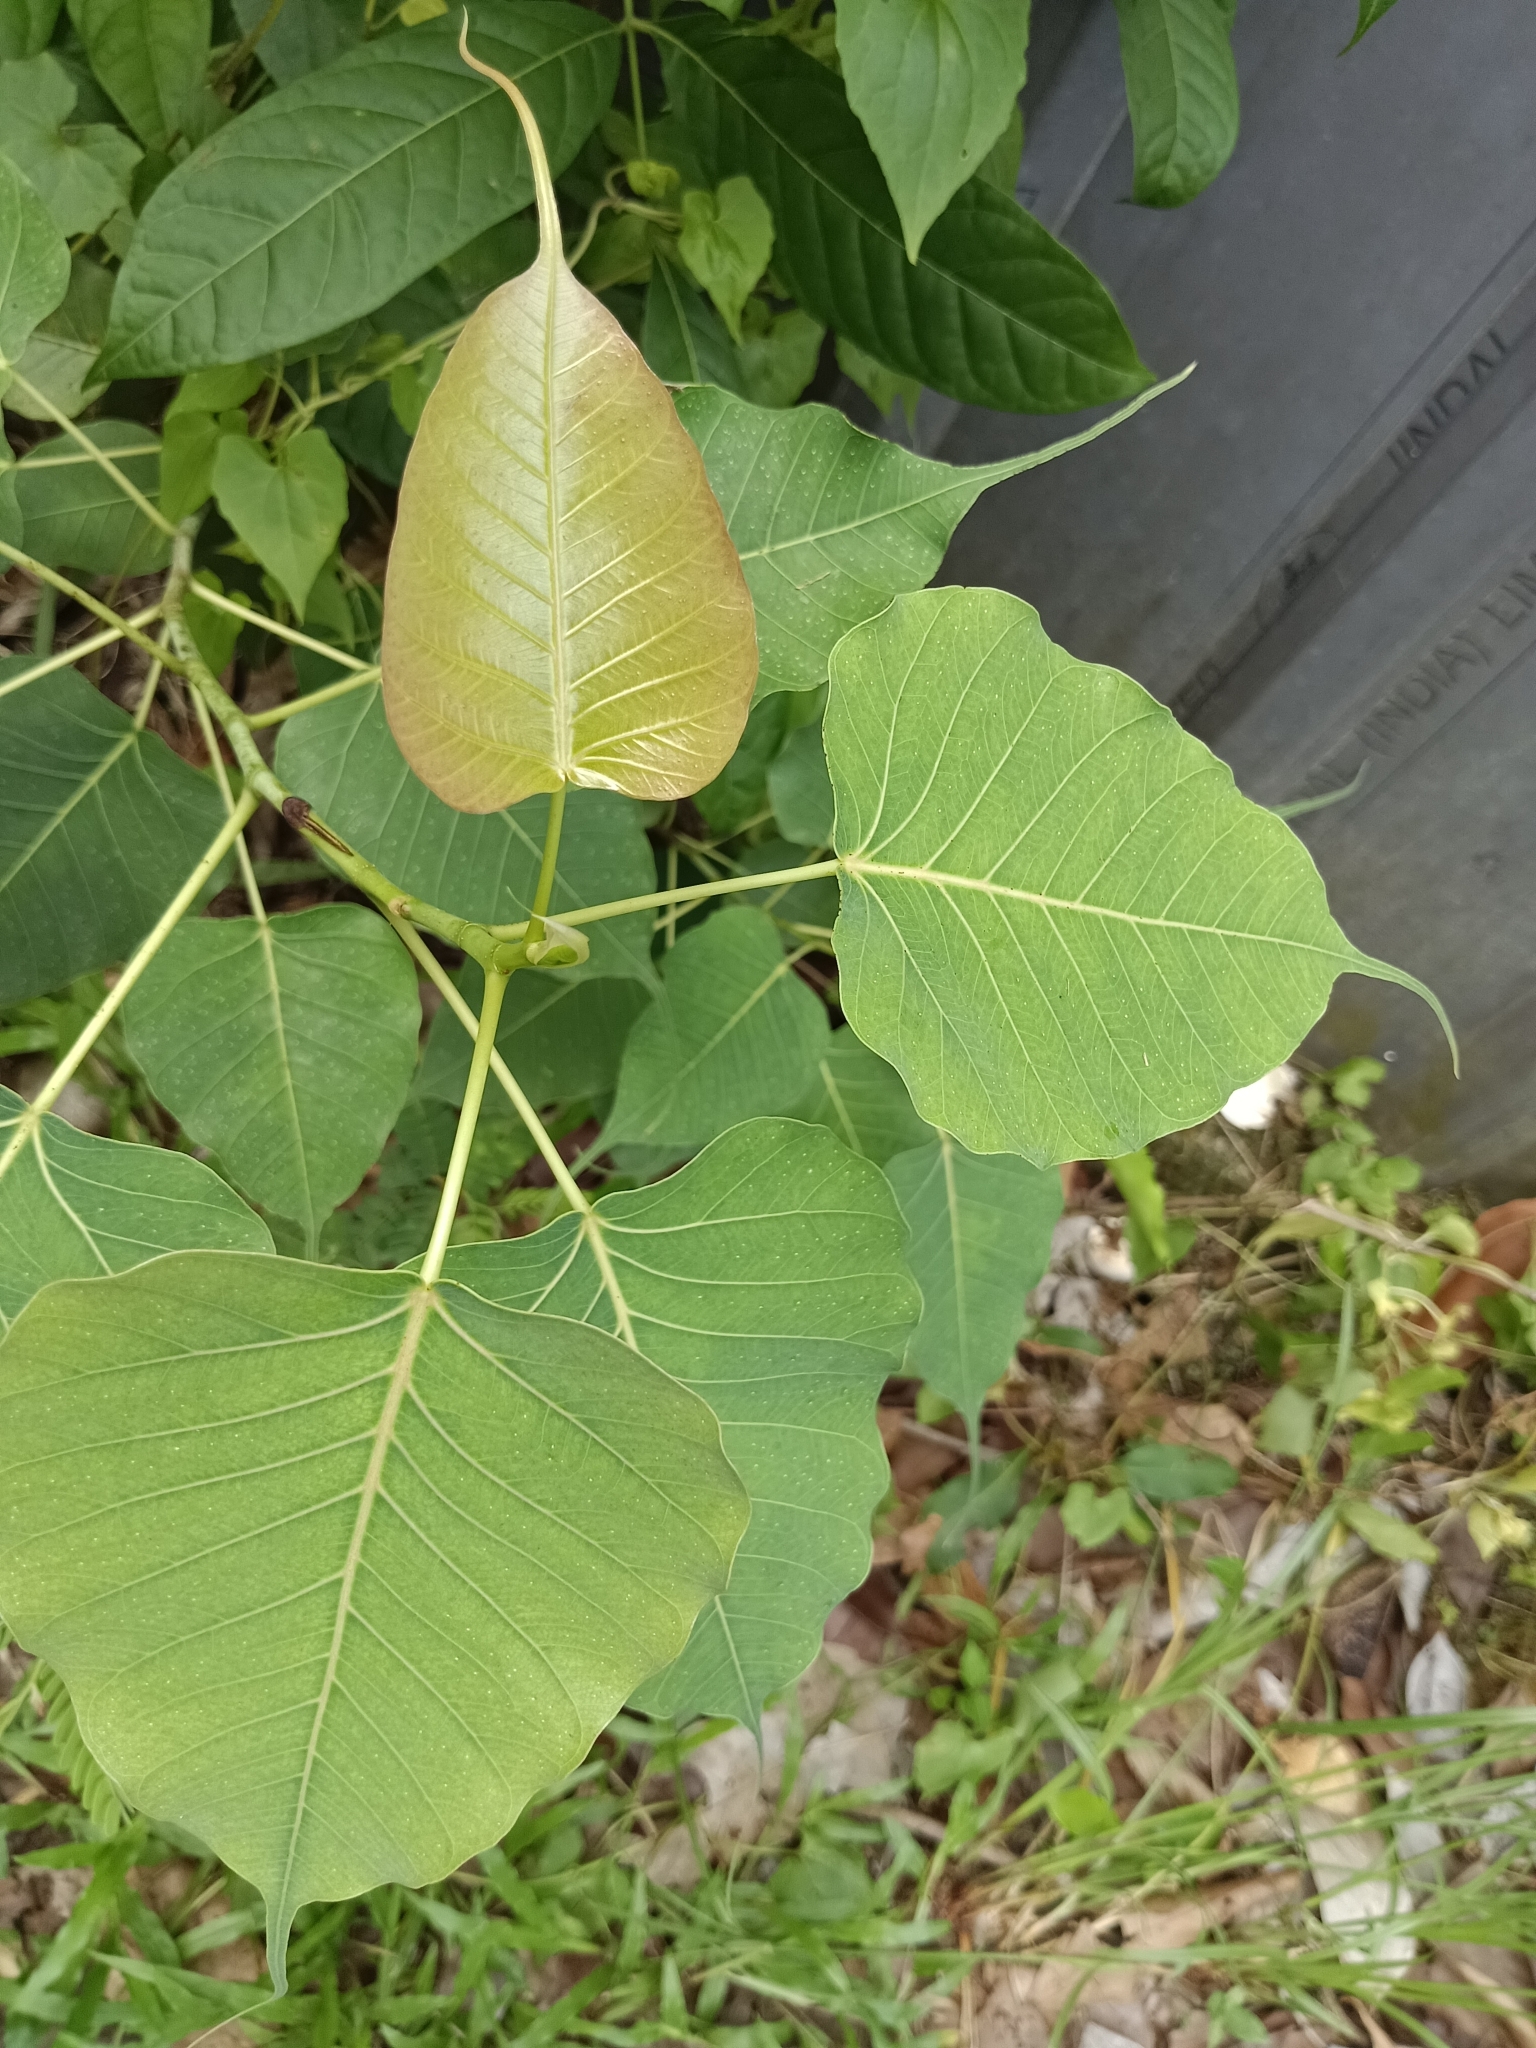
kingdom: Plantae
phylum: Tracheophyta
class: Magnoliopsida
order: Rosales
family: Moraceae
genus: Ficus
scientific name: Ficus religiosa
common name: Bodhi tree
